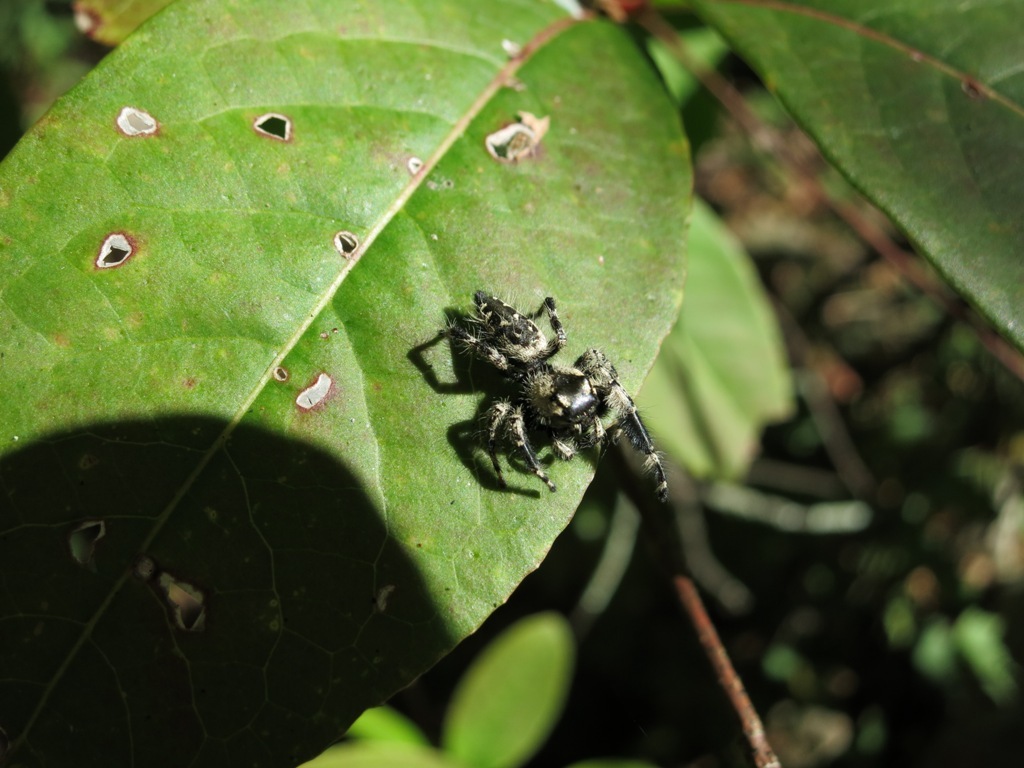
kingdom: Animalia
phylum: Arthropoda
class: Arachnida
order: Araneae
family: Salticidae
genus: Phidippus
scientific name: Phidippus otiosus
